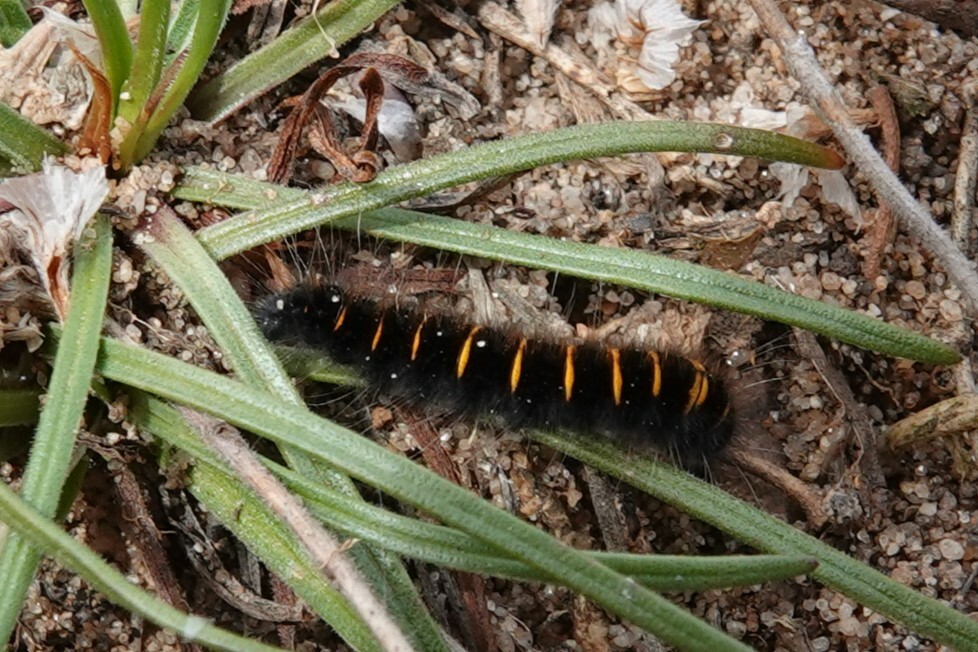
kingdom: Animalia
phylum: Arthropoda
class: Insecta
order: Lepidoptera
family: Lasiocampidae
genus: Macrothylacia
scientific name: Macrothylacia rubi
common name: Fox moth
